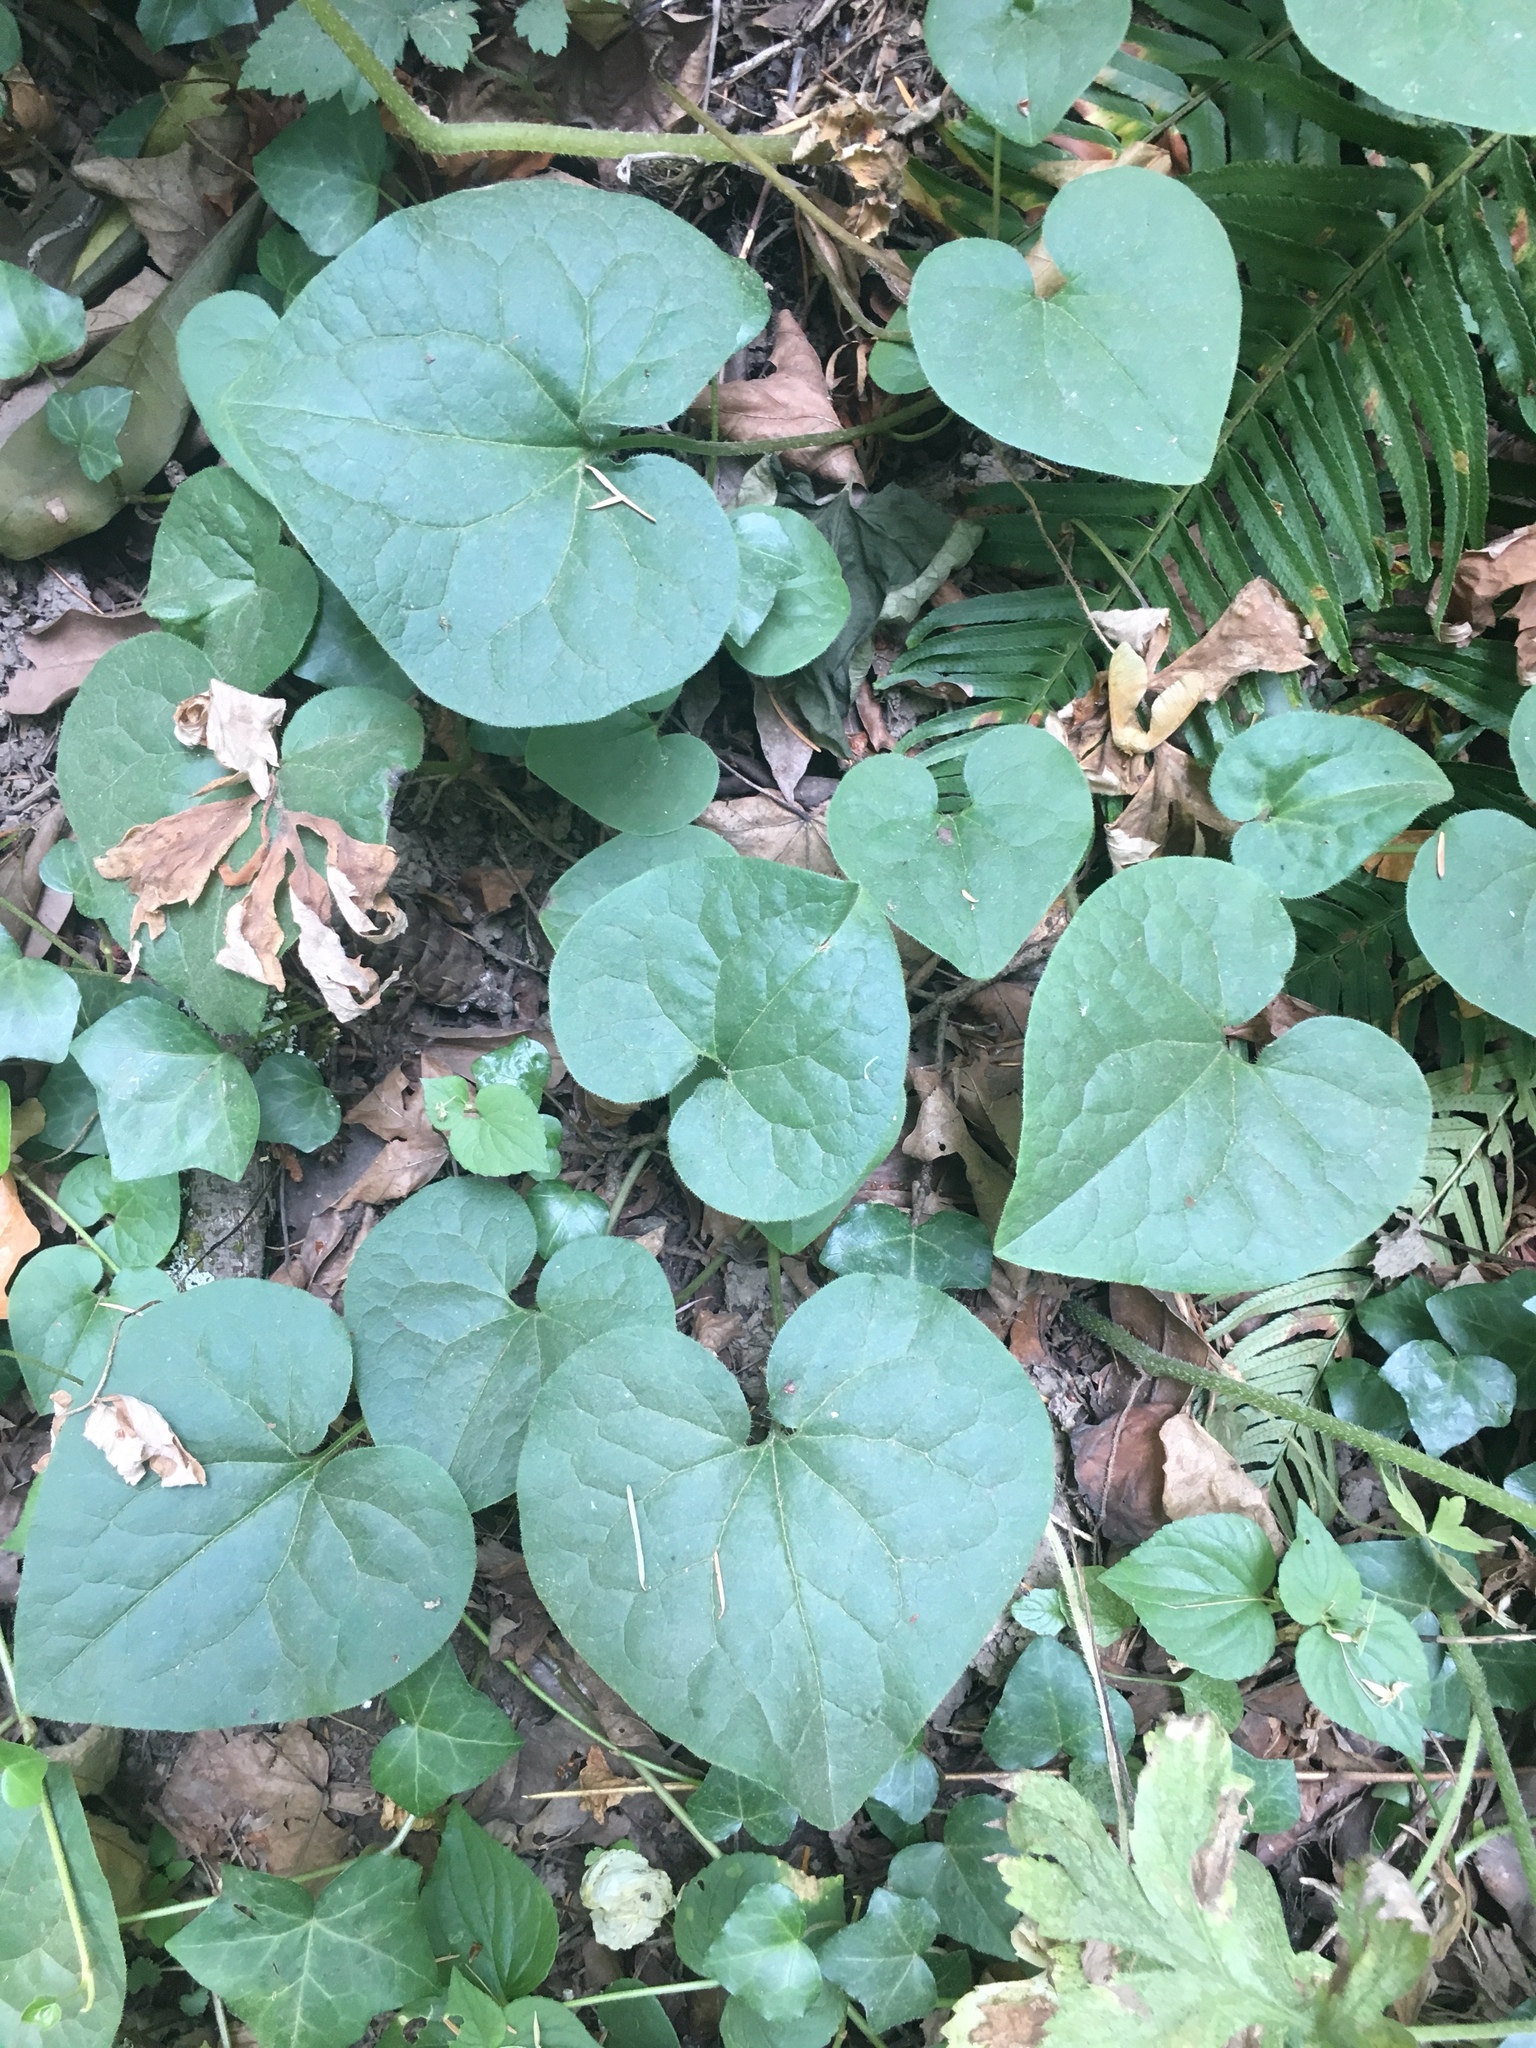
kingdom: Plantae
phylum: Tracheophyta
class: Magnoliopsida
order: Piperales
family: Aristolochiaceae
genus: Asarum
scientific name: Asarum caudatum
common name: Wild ginger
